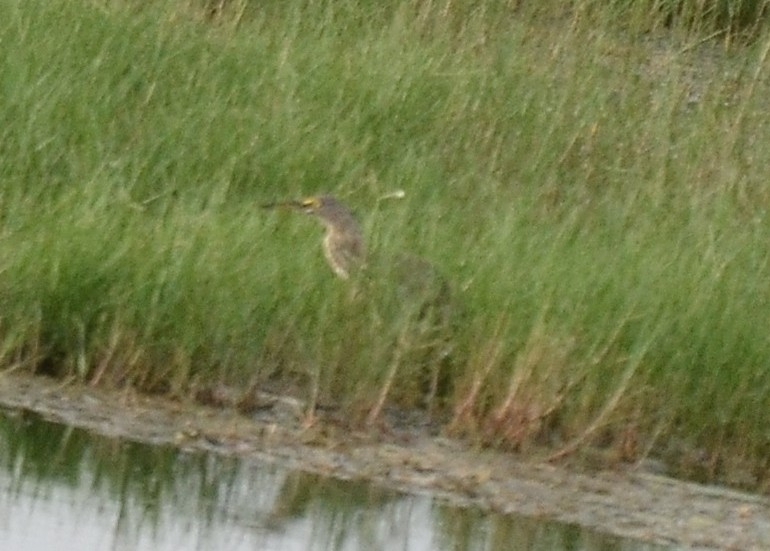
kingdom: Animalia
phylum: Chordata
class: Aves
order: Pelecaniformes
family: Ardeidae
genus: Ardeola
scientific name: Ardeola grayii
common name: Indian pond heron
